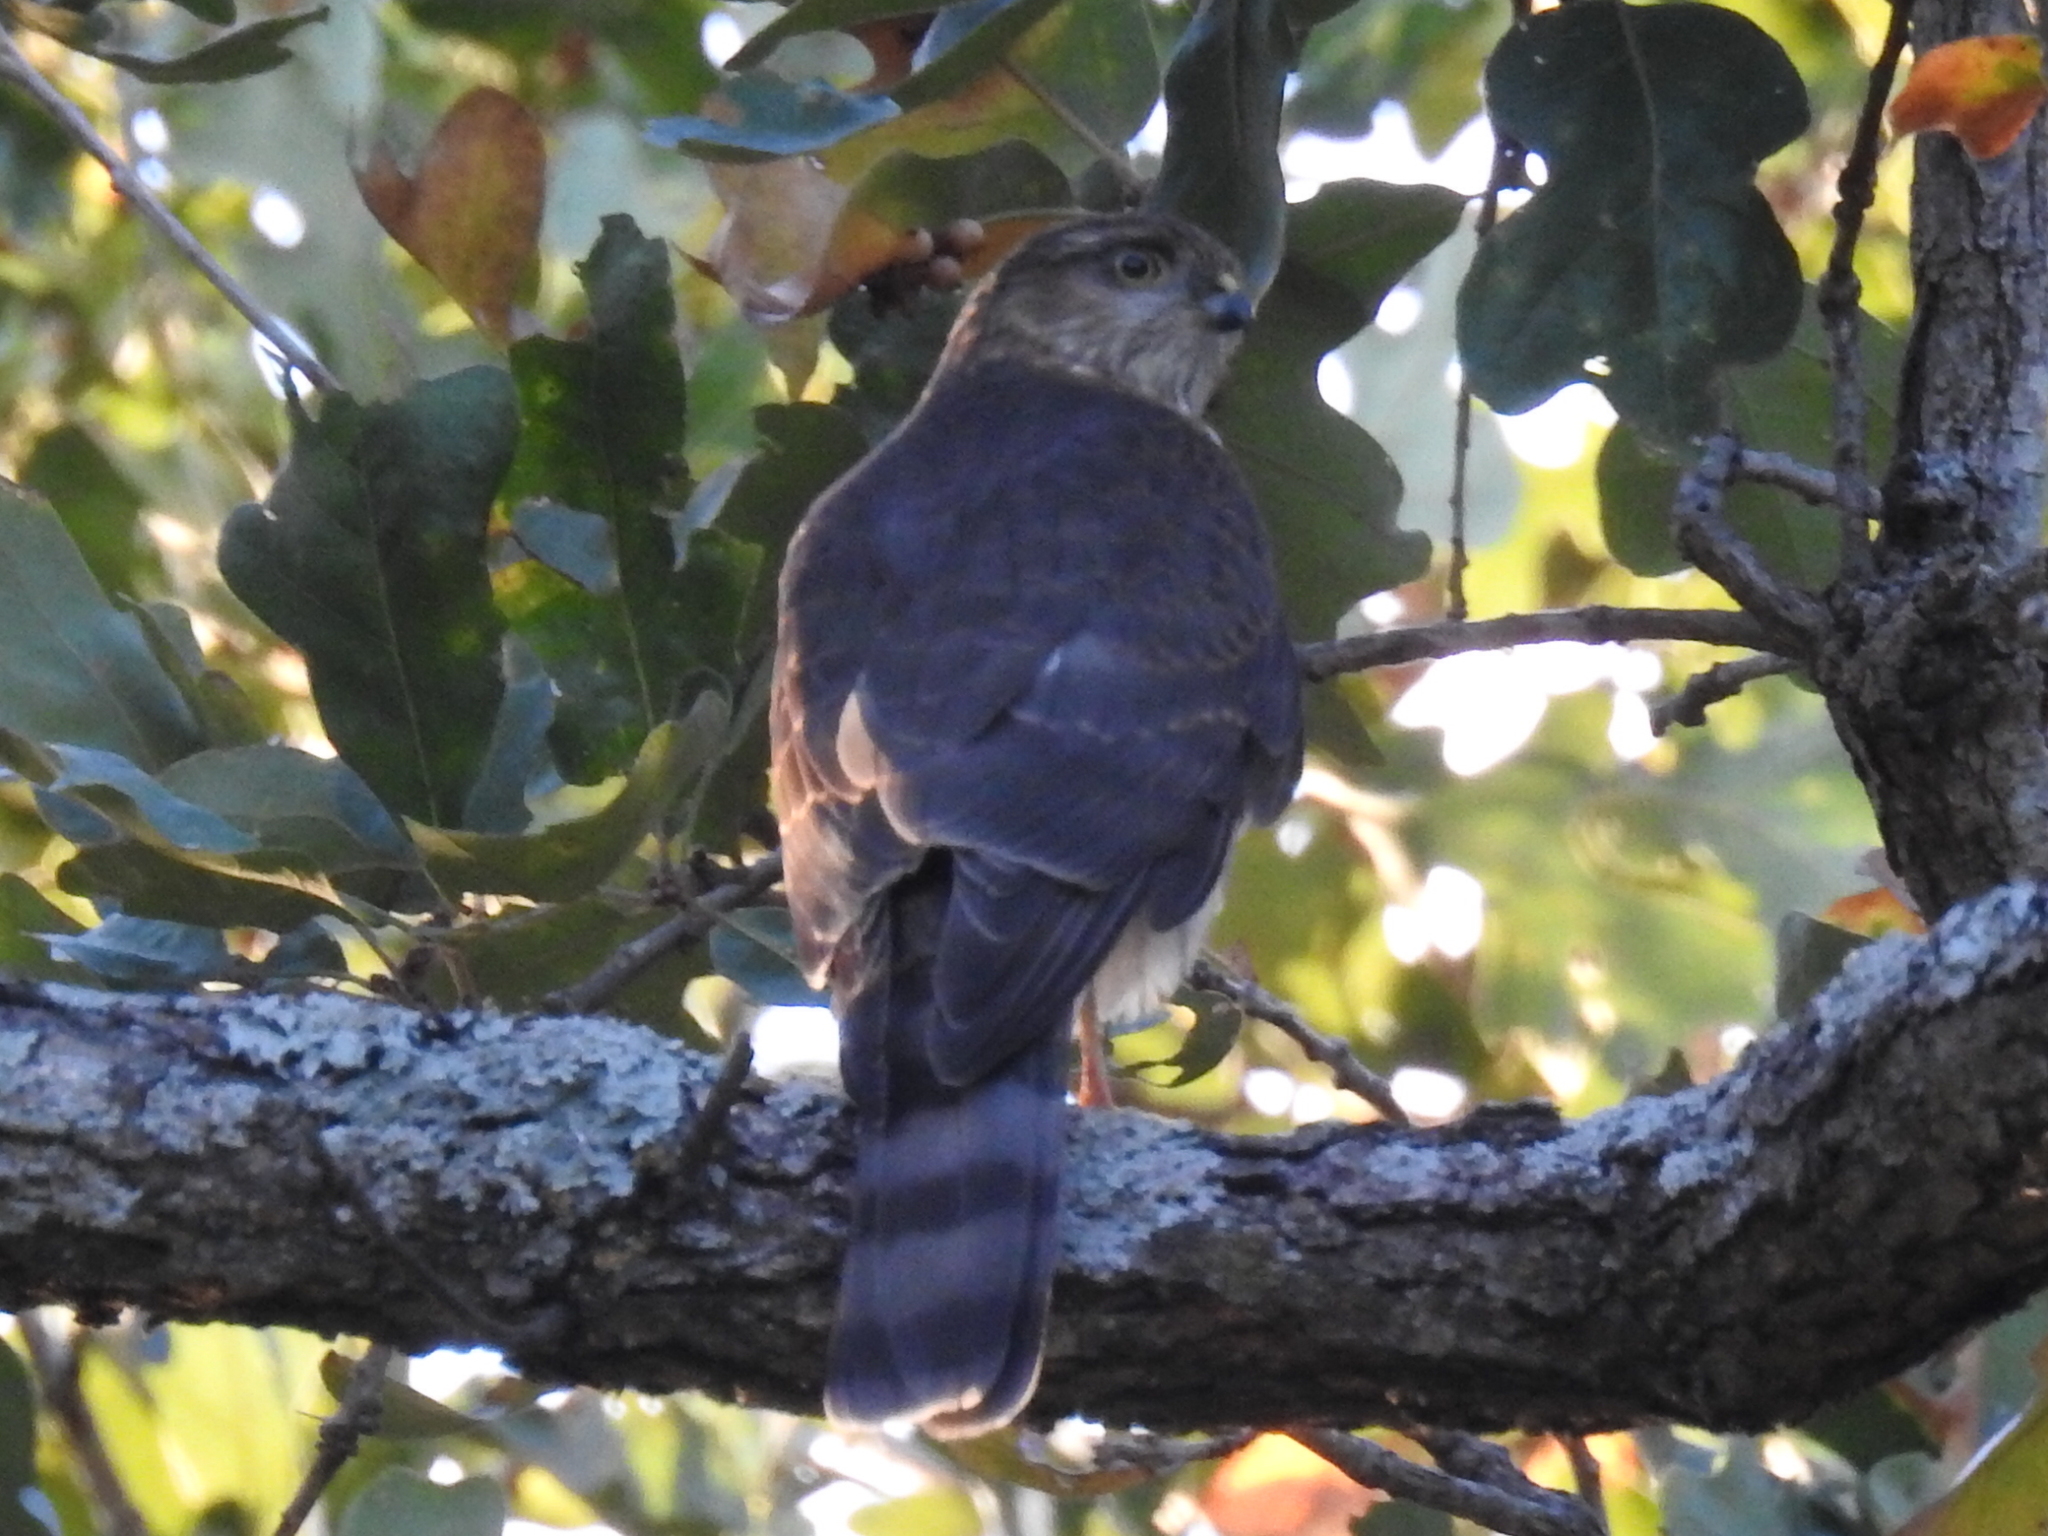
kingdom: Animalia
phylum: Chordata
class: Aves
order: Accipitriformes
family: Accipitridae
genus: Accipiter
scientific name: Accipiter striatus
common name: Sharp-shinned hawk
